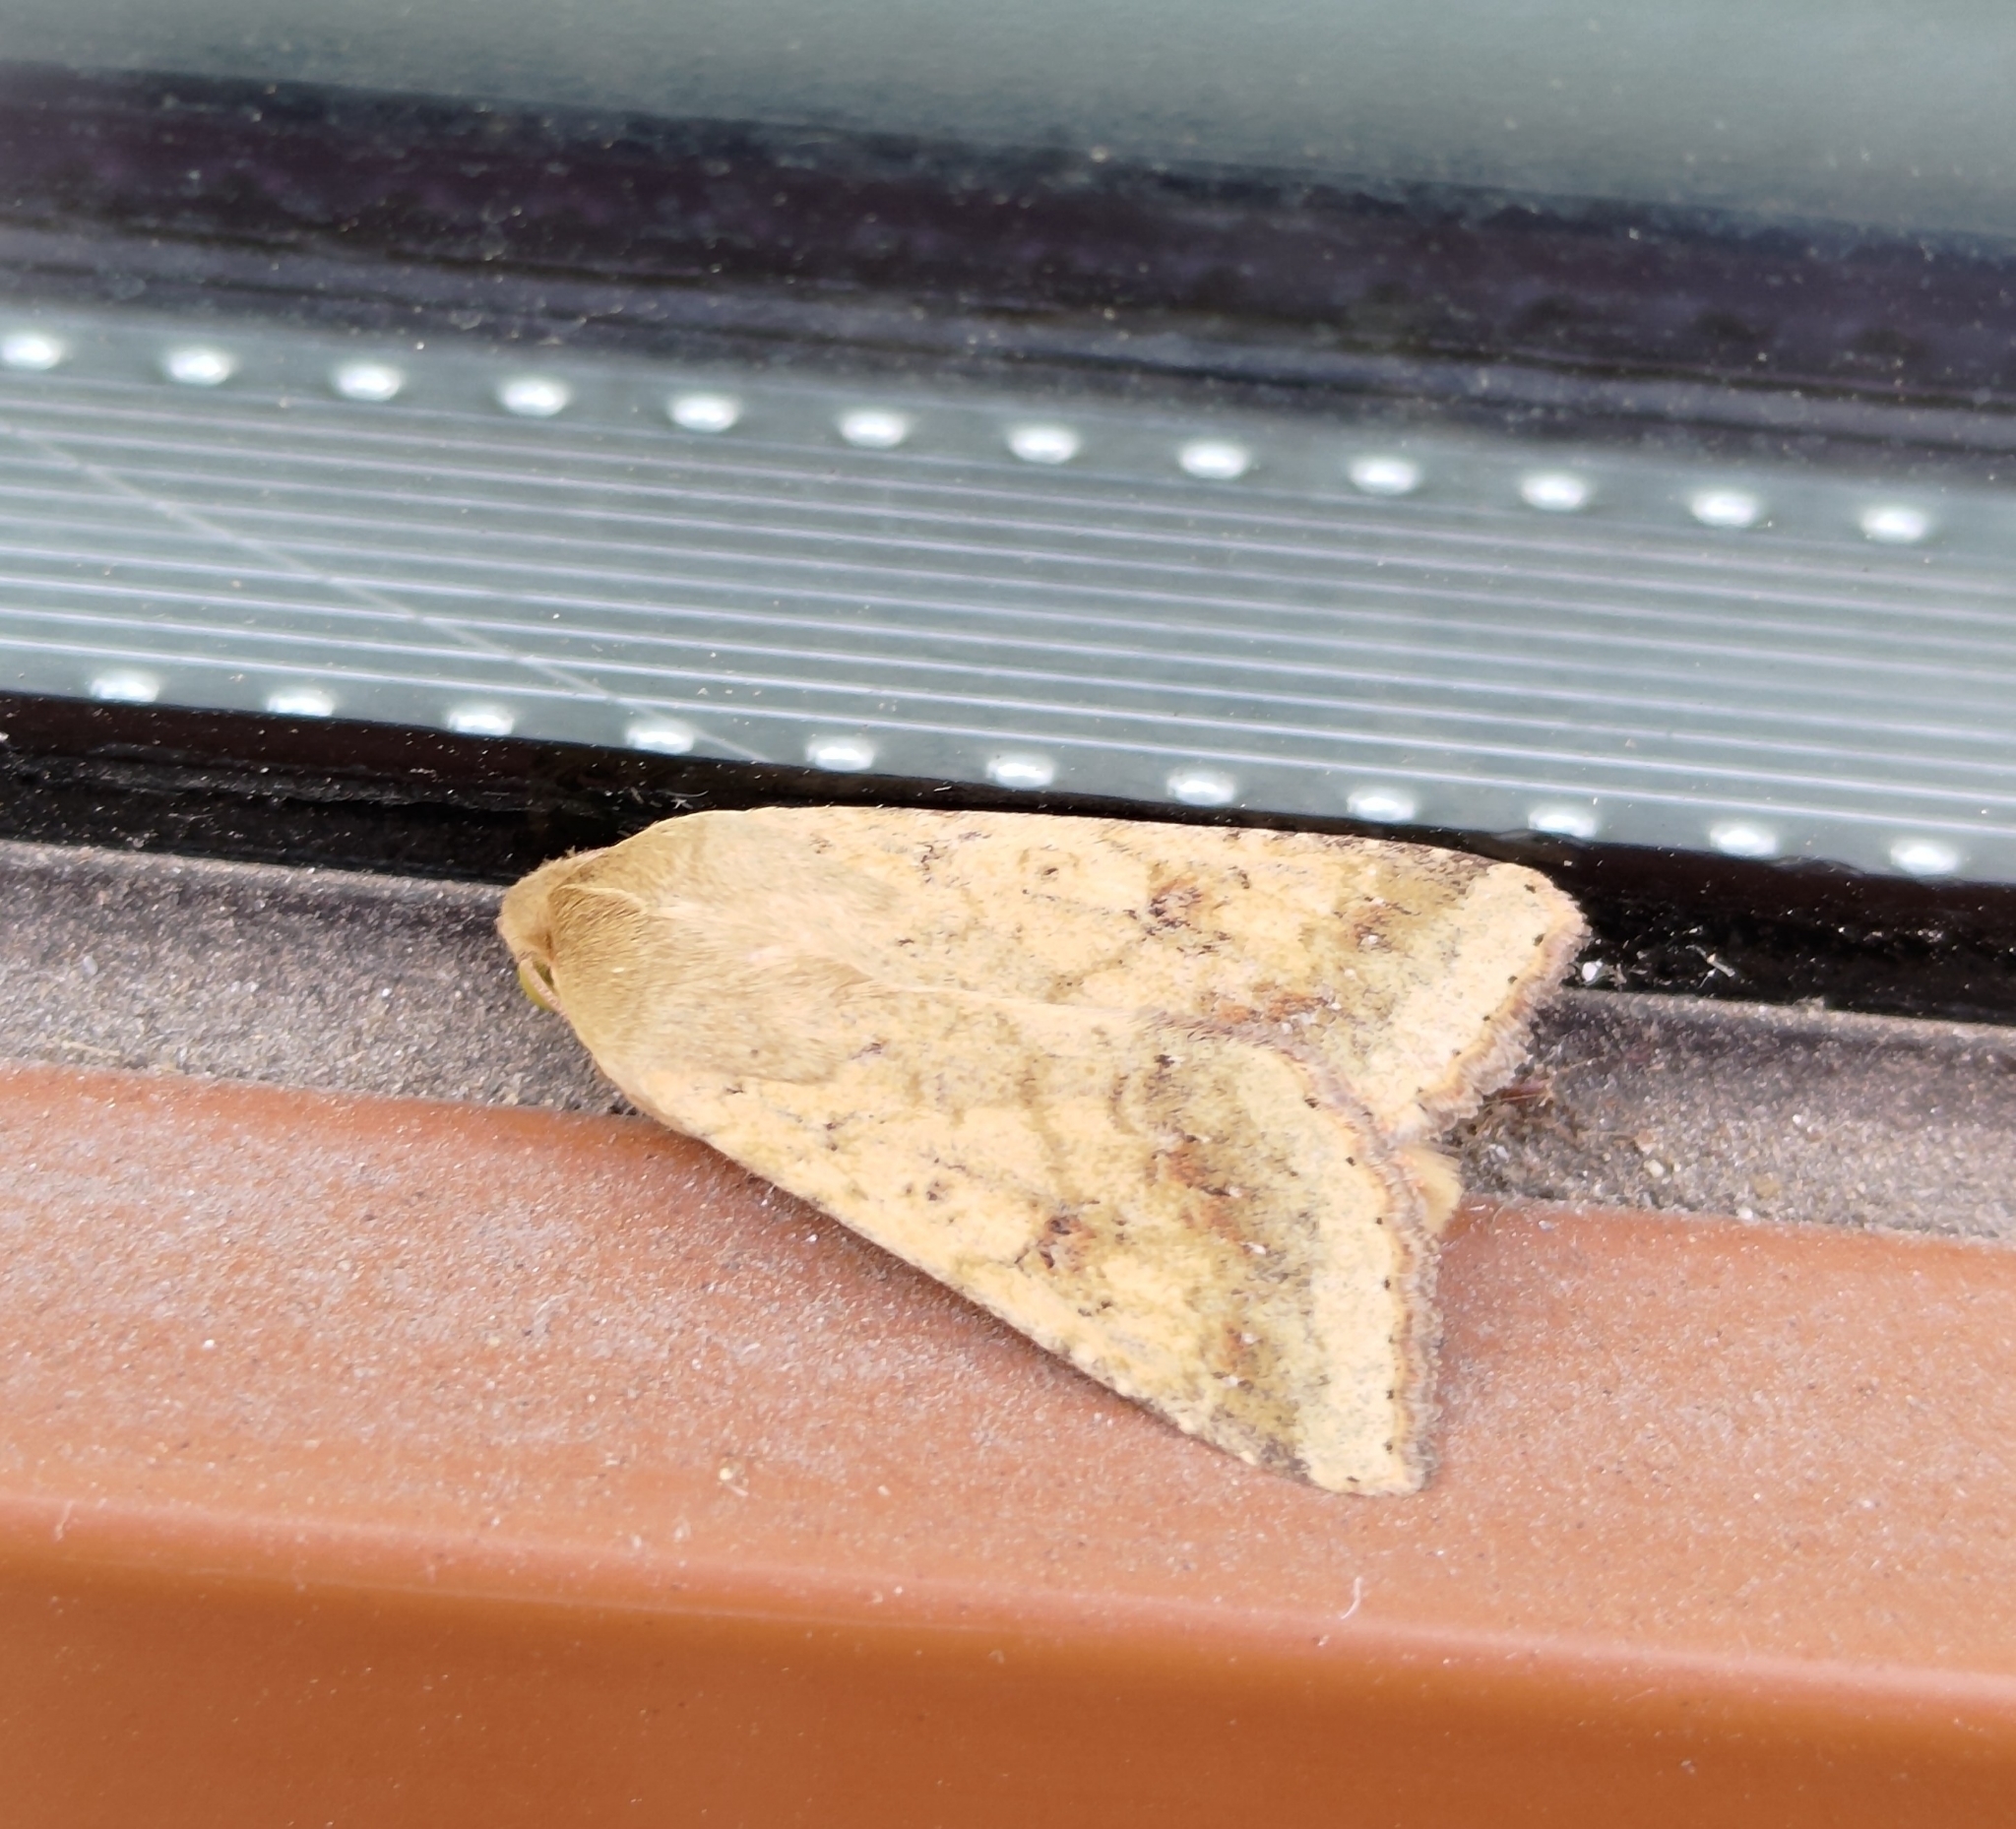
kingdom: Animalia
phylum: Arthropoda
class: Insecta
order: Lepidoptera
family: Noctuidae
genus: Helicoverpa
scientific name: Helicoverpa armigera
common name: Cotton bollworm
